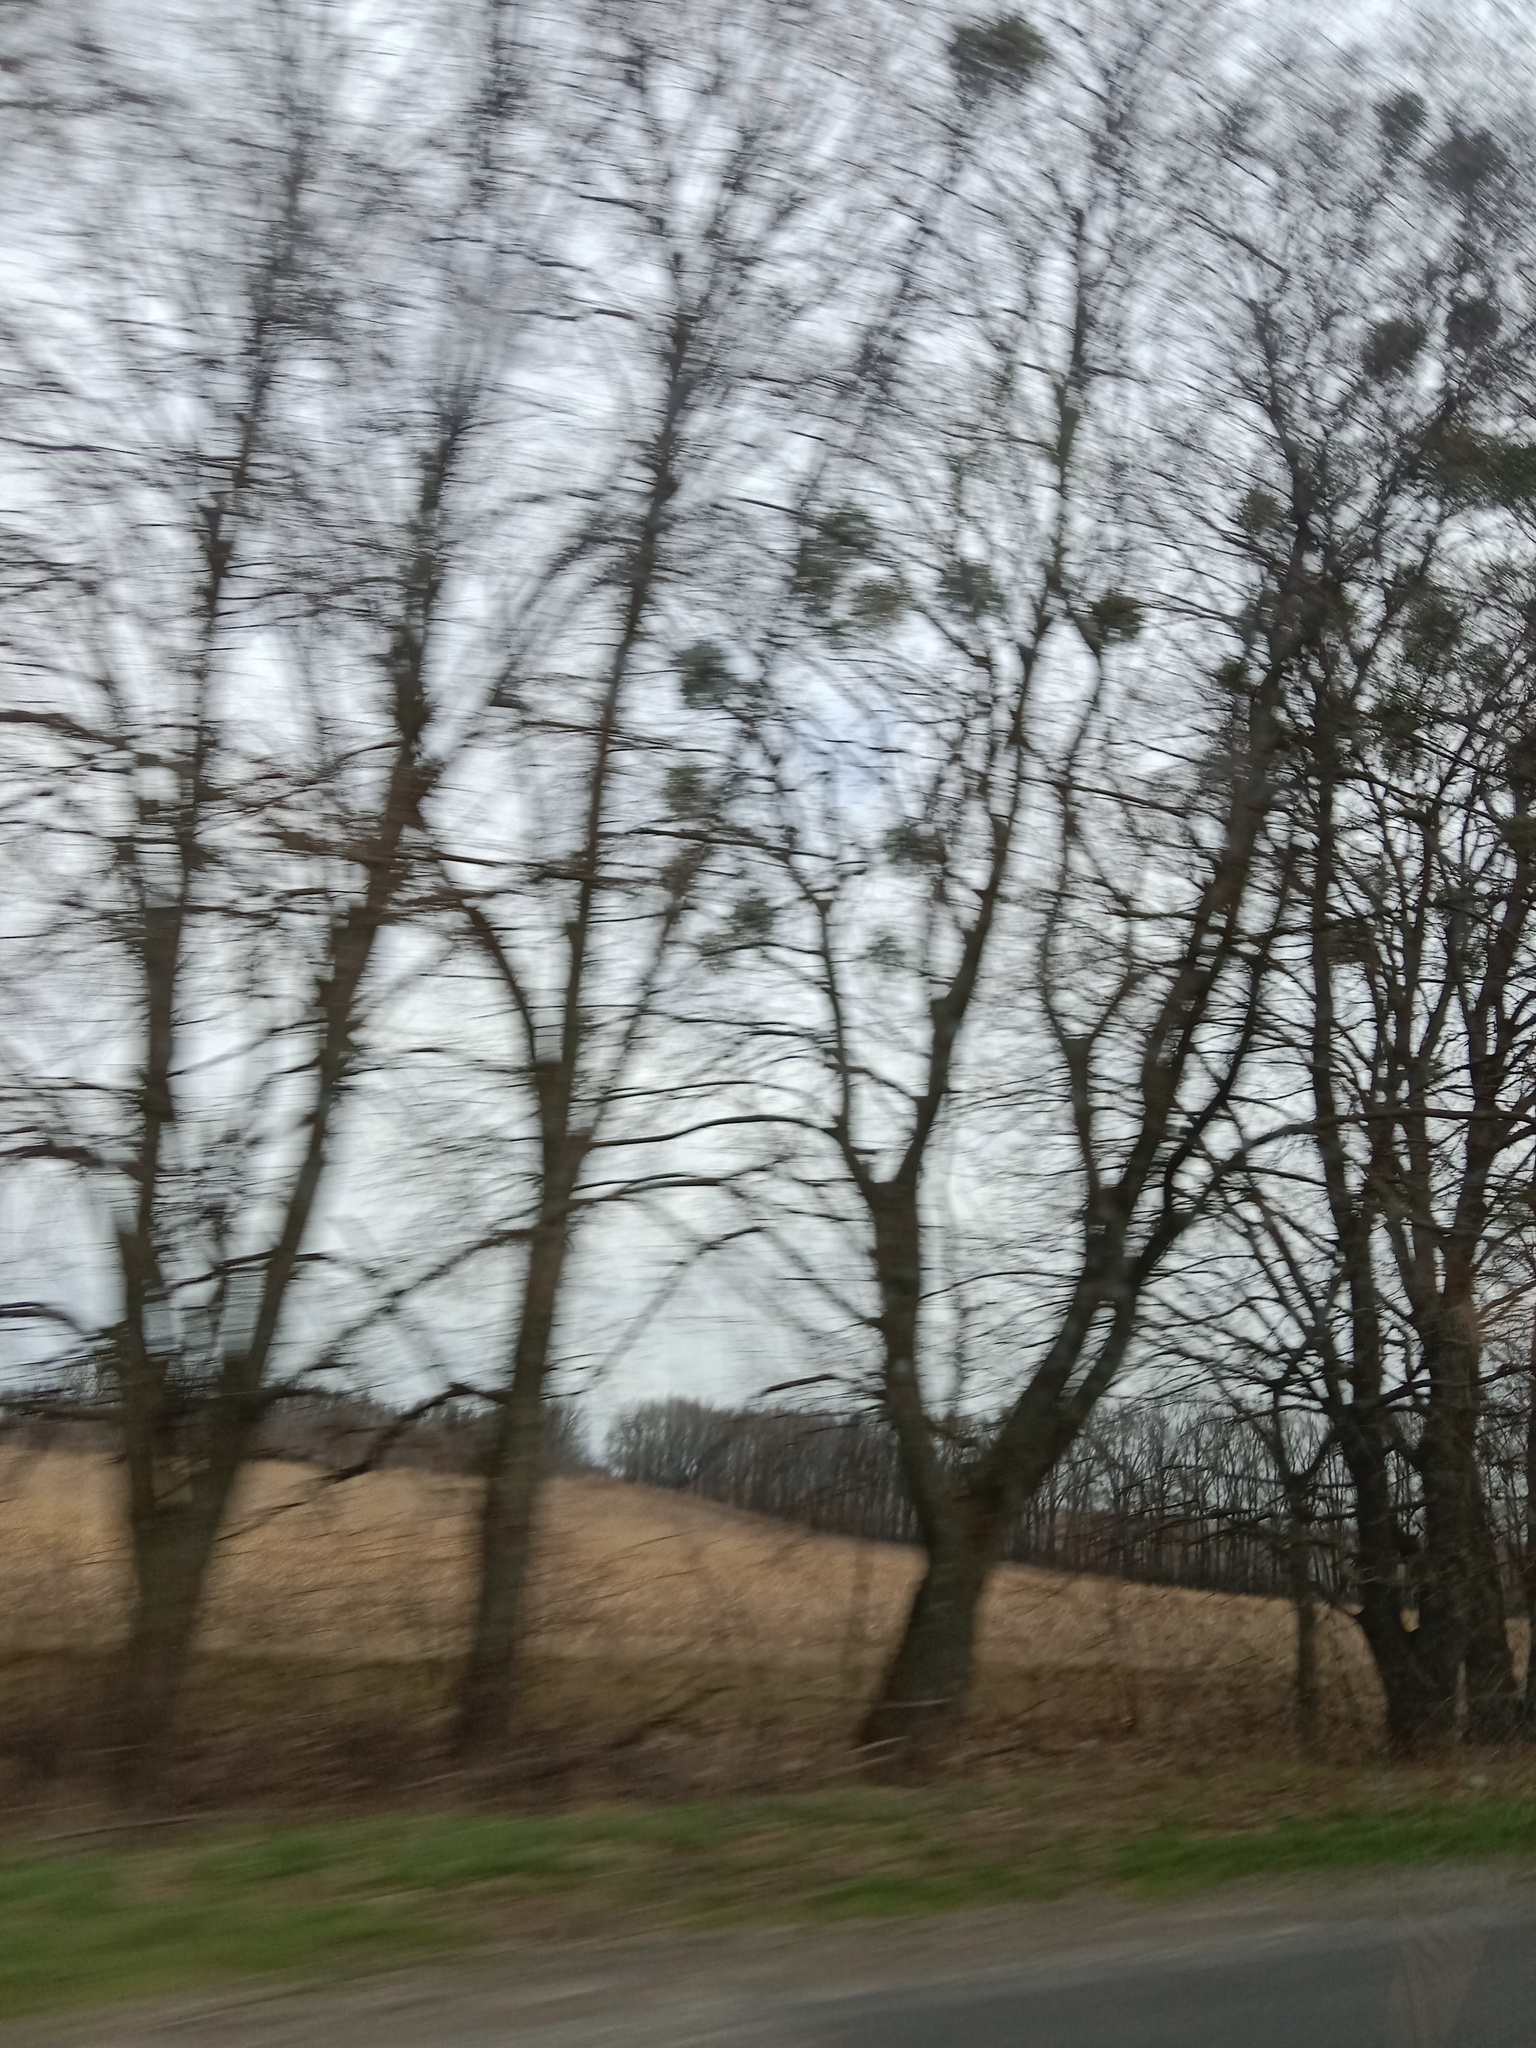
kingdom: Plantae
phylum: Tracheophyta
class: Magnoliopsida
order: Santalales
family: Viscaceae
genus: Viscum
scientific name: Viscum album
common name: Mistletoe
